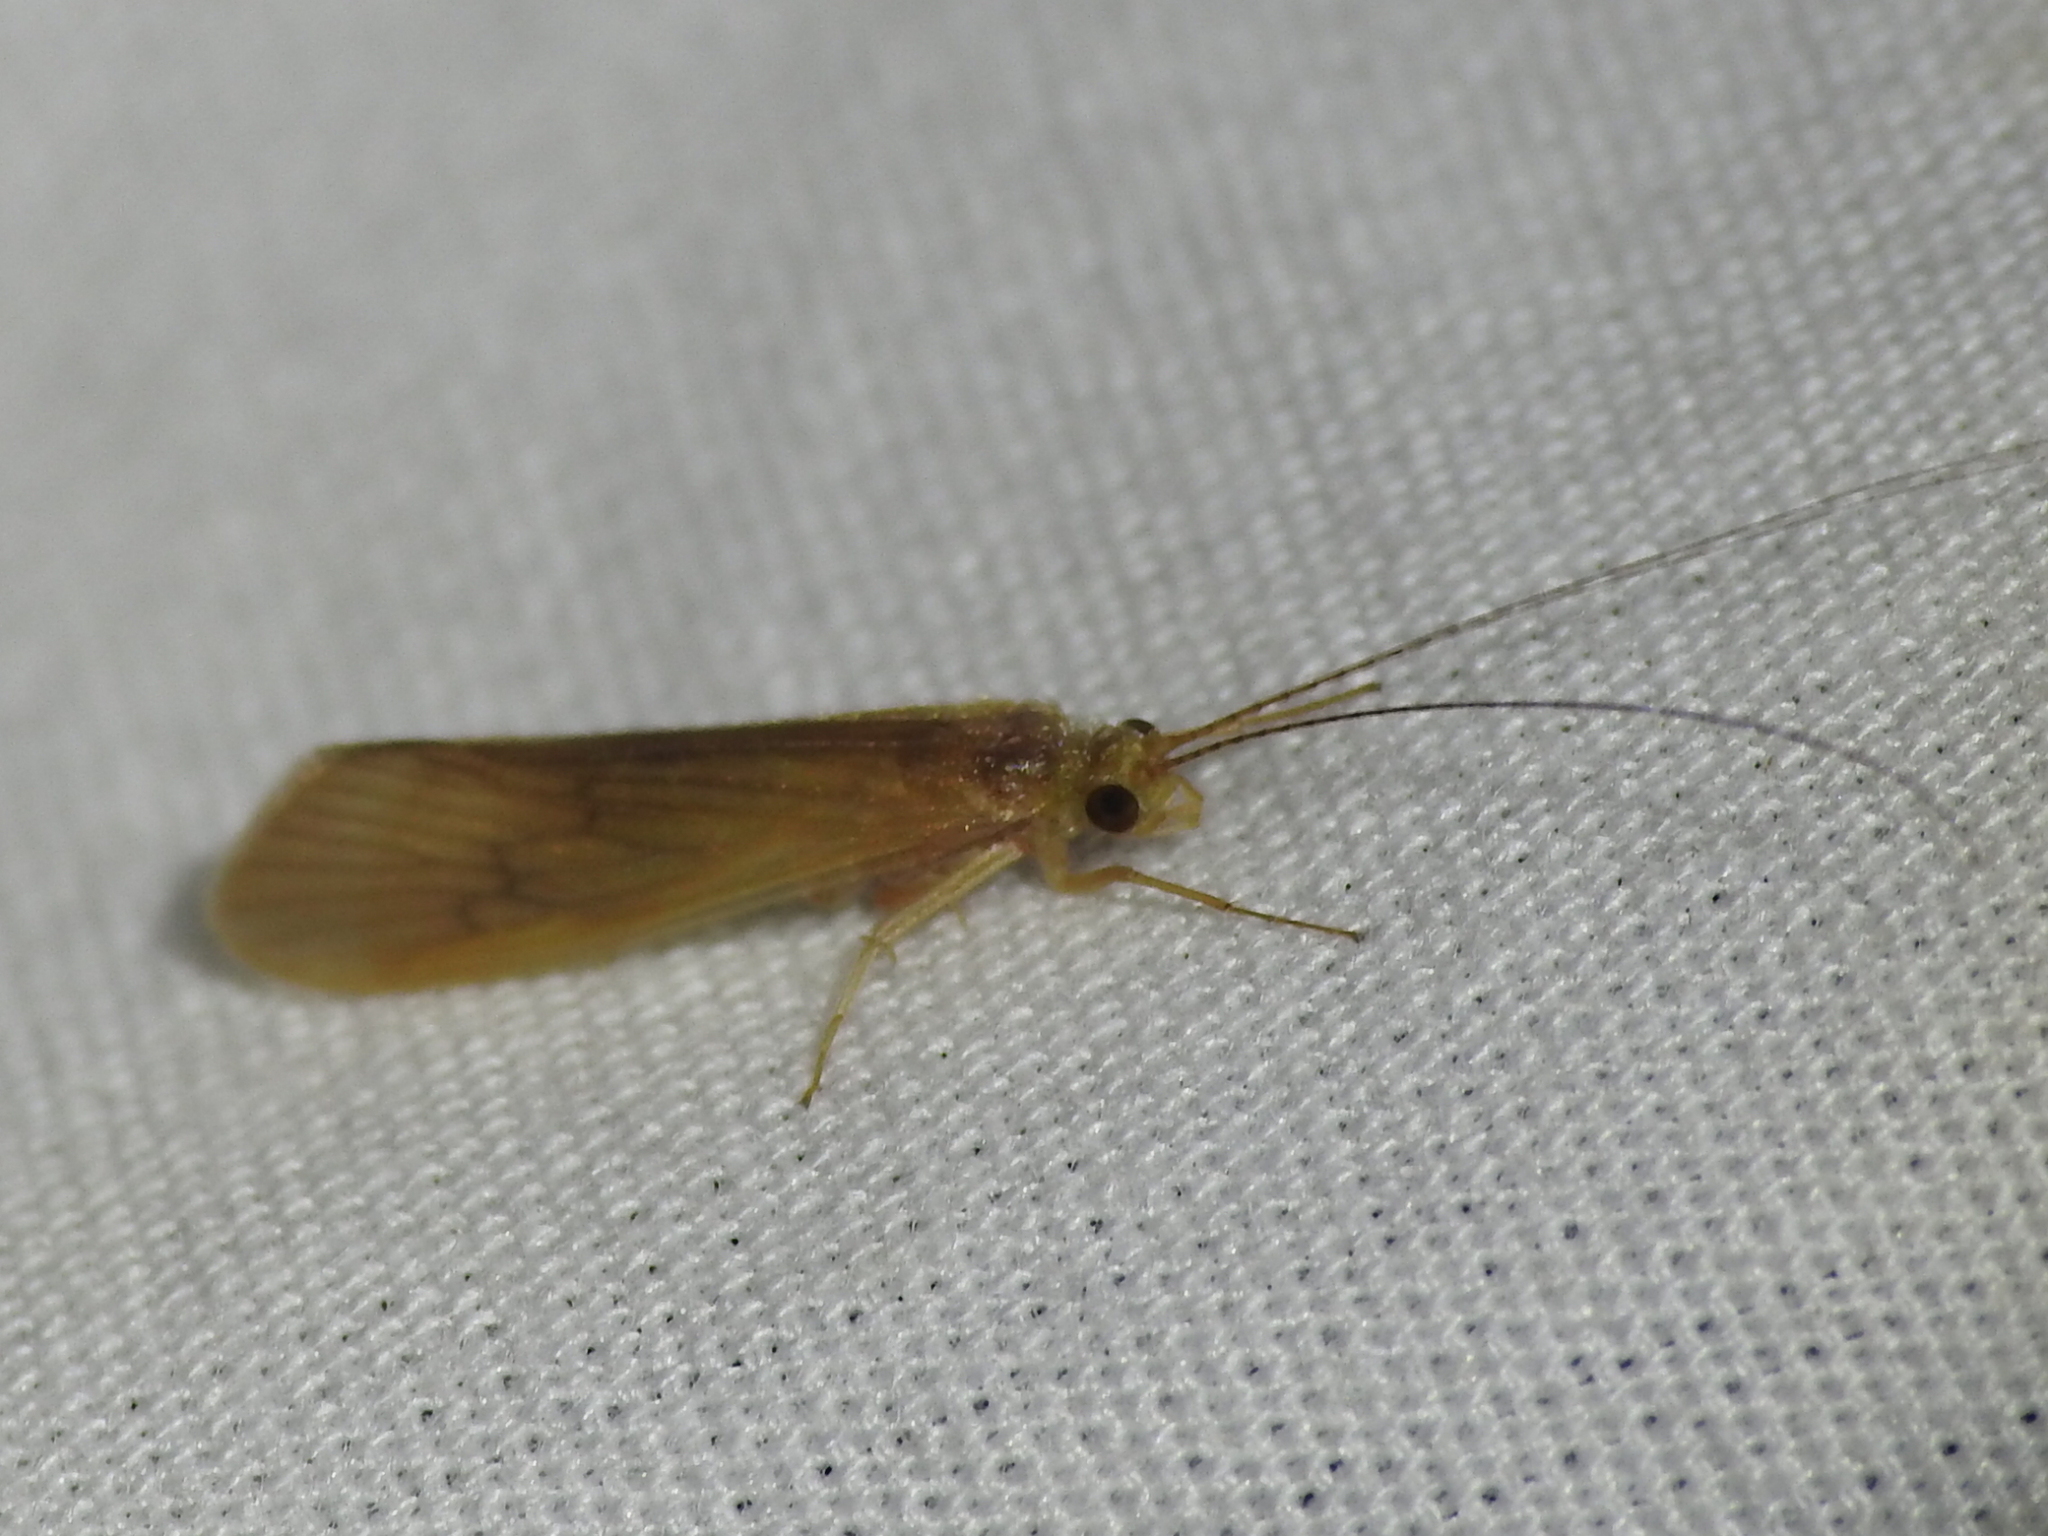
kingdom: Animalia
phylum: Arthropoda
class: Insecta
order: Trichoptera
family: Hydropsychidae
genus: Potamyia
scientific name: Potamyia flava
